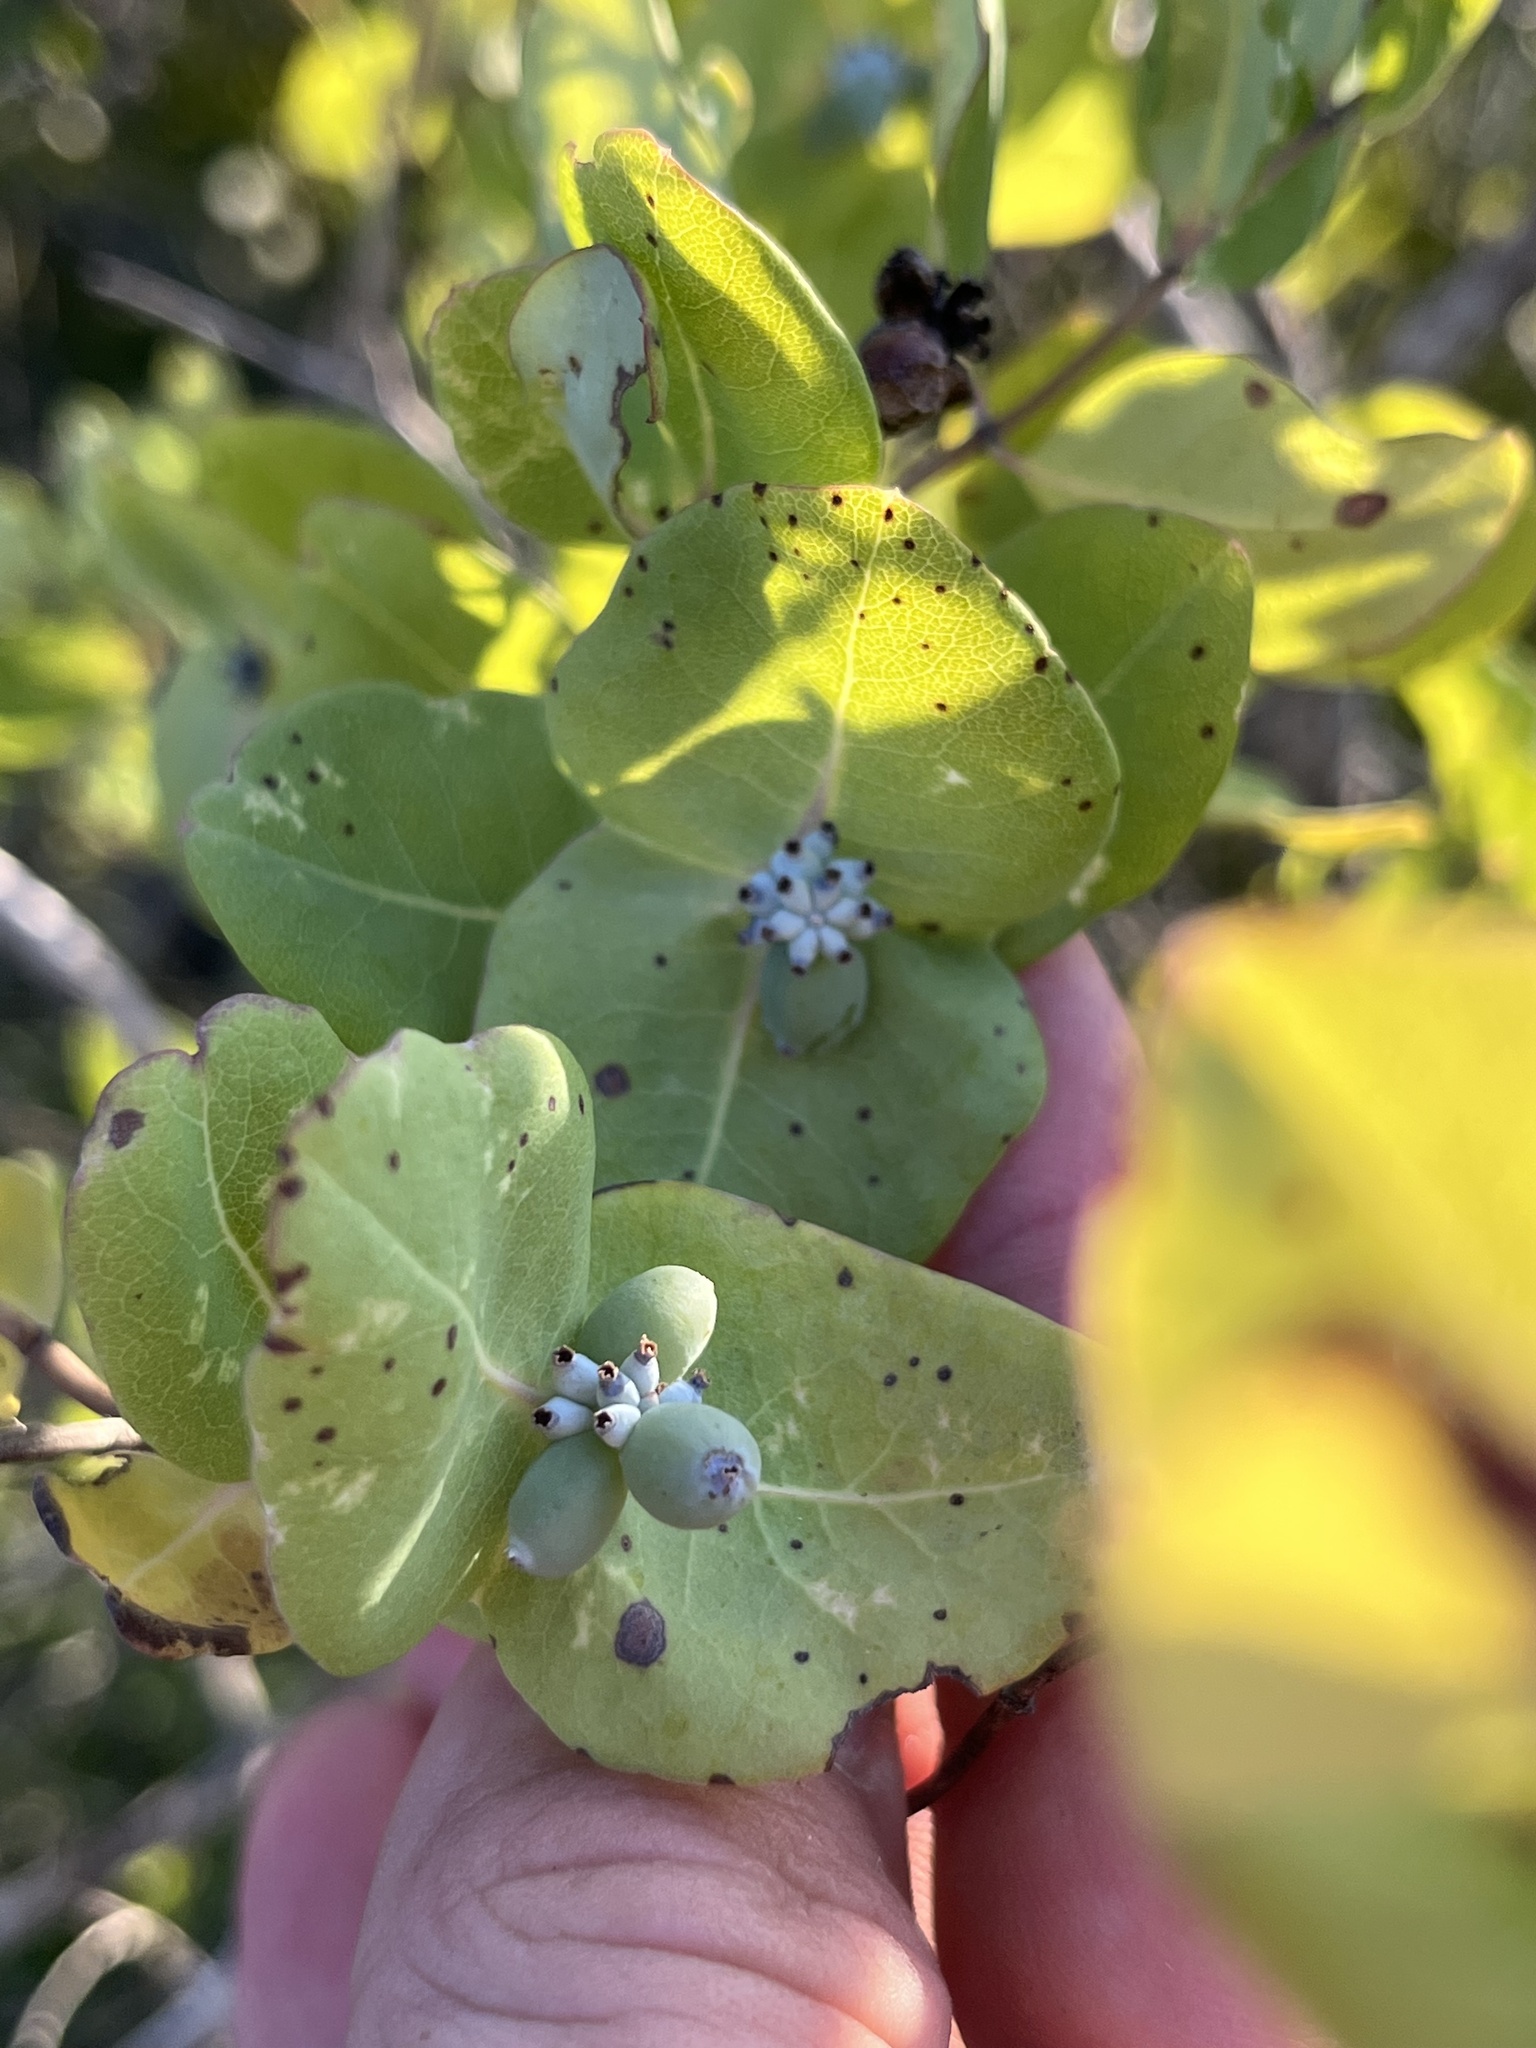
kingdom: Plantae
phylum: Tracheophyta
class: Magnoliopsida
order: Dipsacales
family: Caprifoliaceae
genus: Lonicera
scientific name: Lonicera albiflora
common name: White honeysuckle
